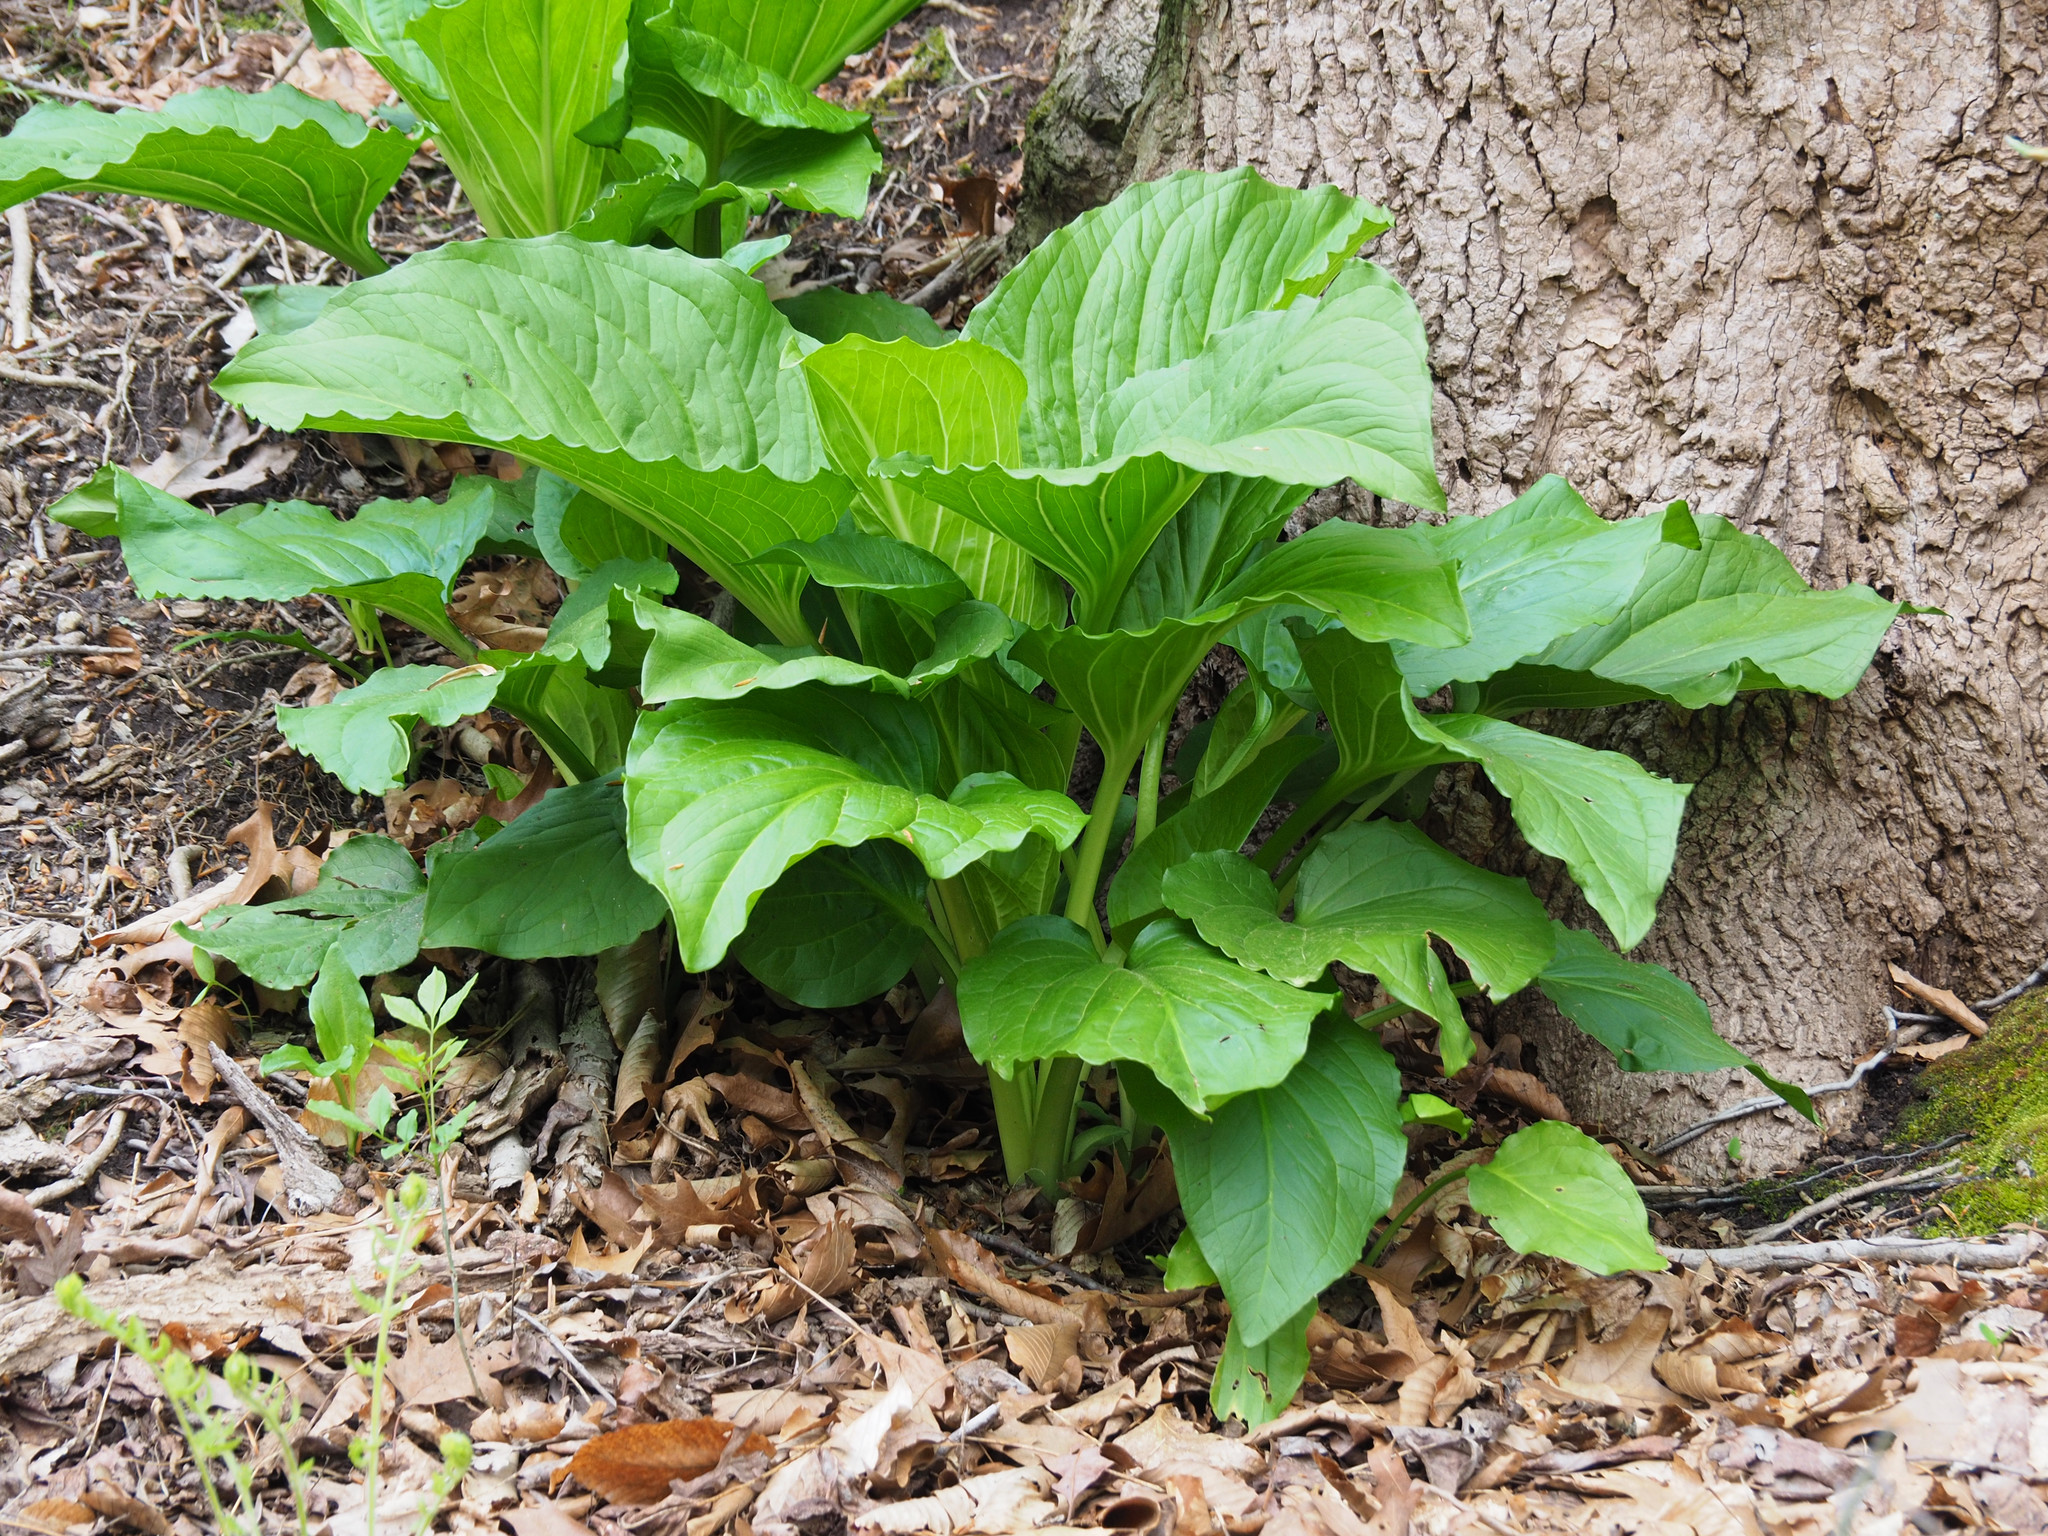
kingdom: Plantae
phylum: Tracheophyta
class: Liliopsida
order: Alismatales
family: Araceae
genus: Symplocarpus
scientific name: Symplocarpus foetidus
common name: Eastern skunk cabbage
